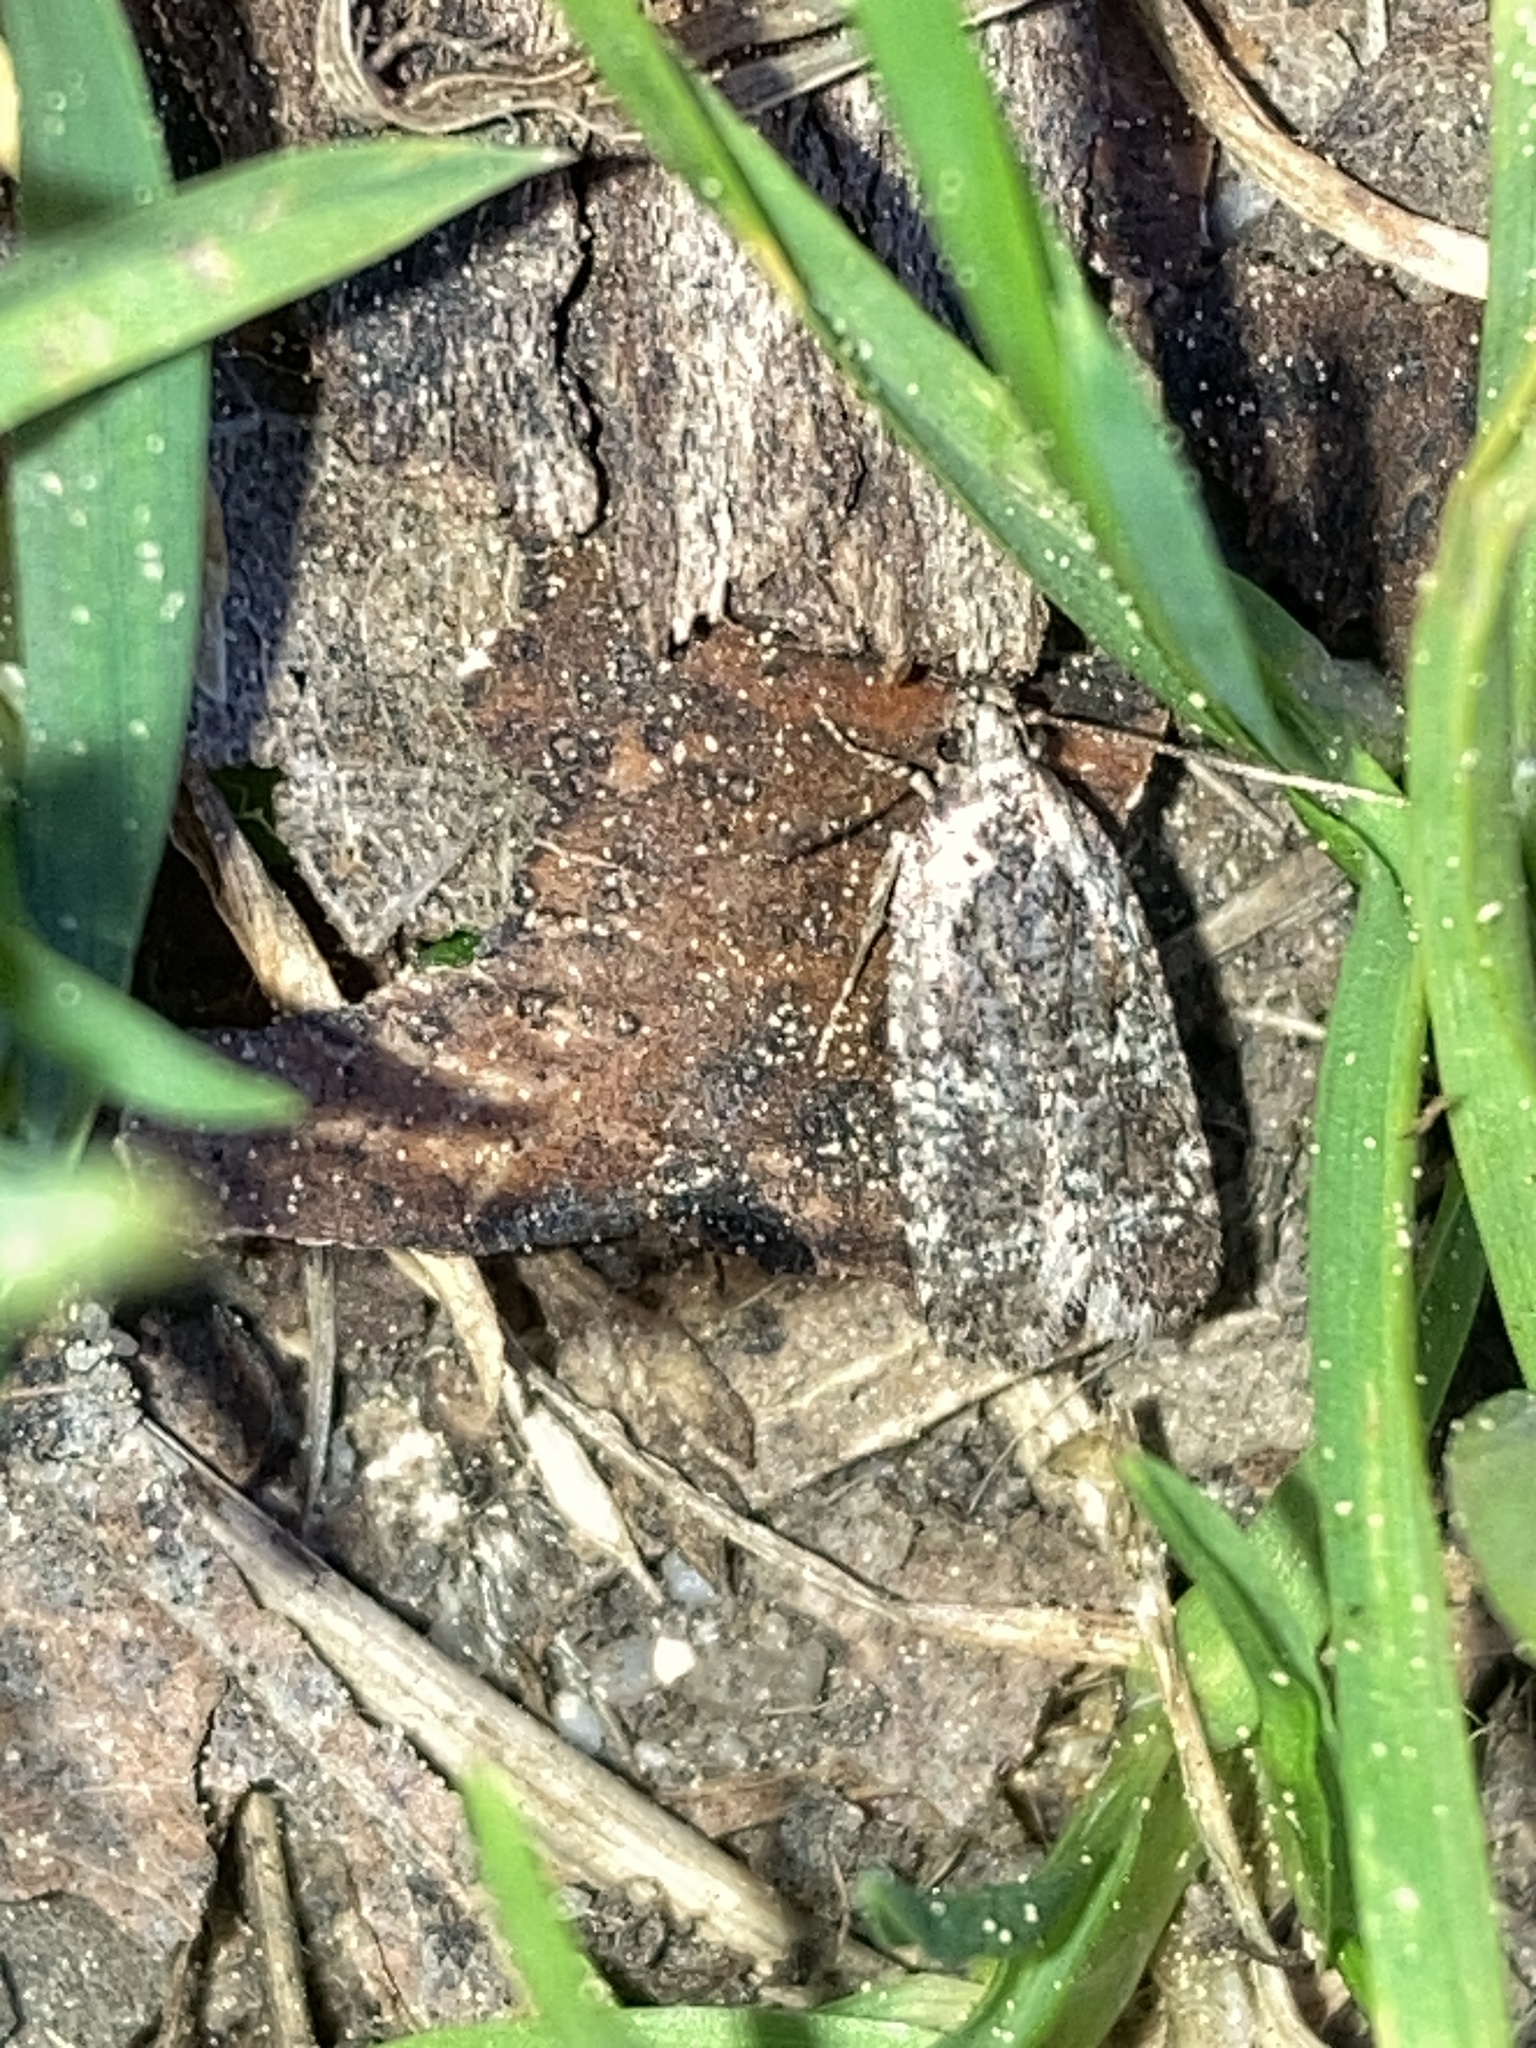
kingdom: Animalia
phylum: Arthropoda
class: Insecta
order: Lepidoptera
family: Depressariidae
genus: Agonopterix
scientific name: Agonopterix hypericella
